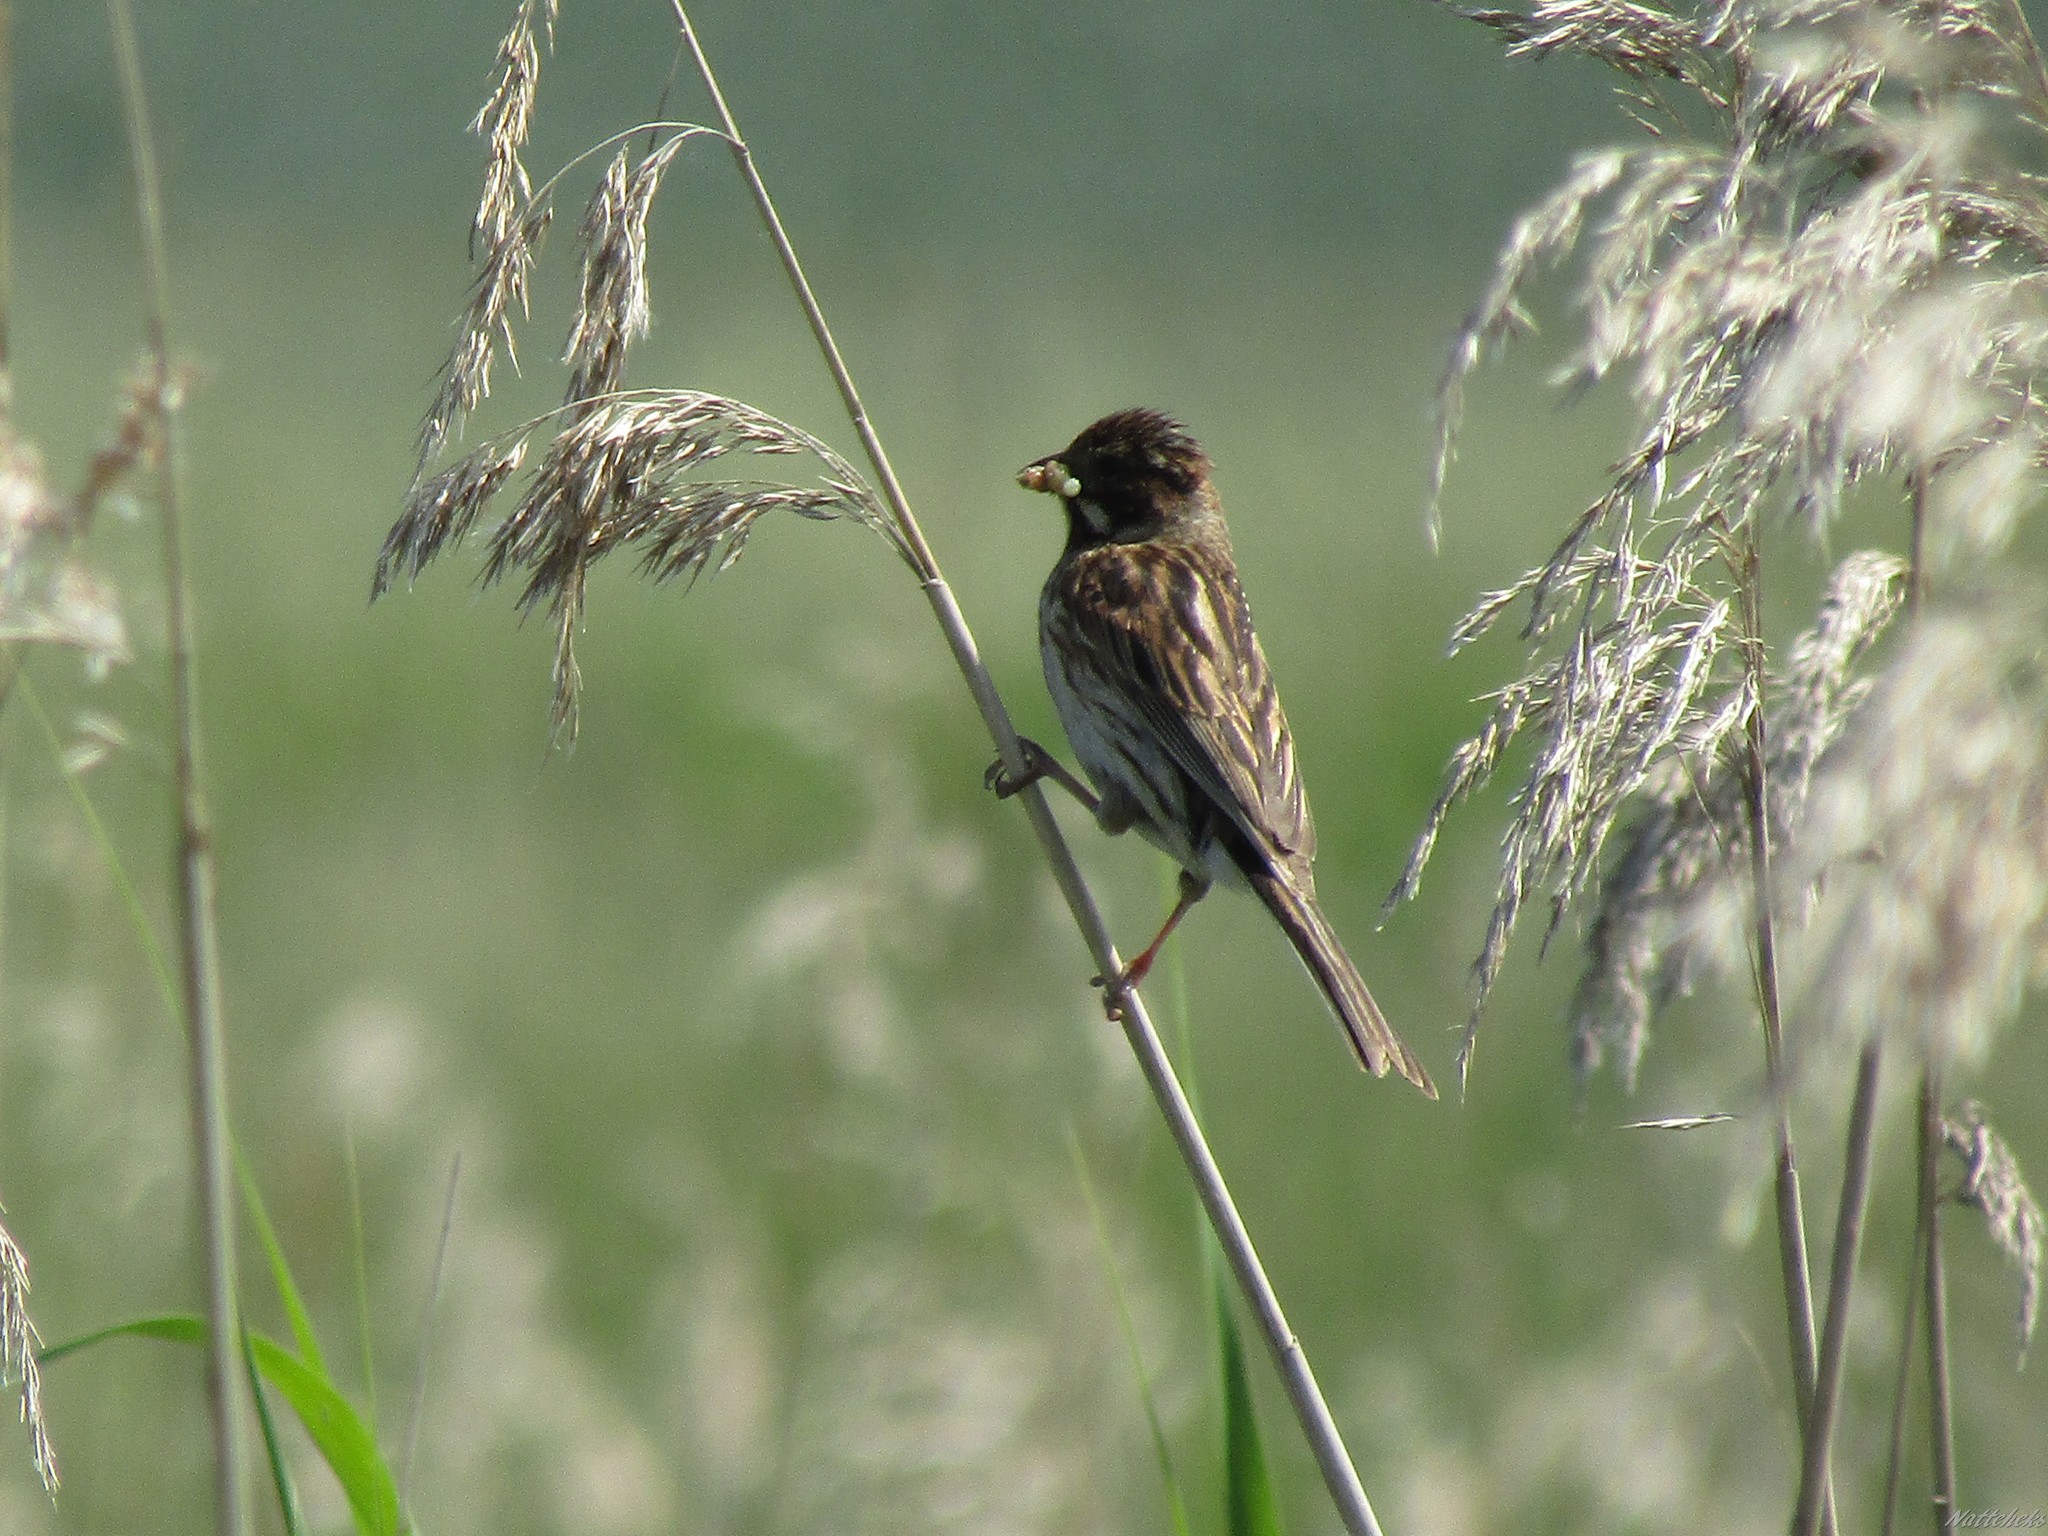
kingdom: Animalia
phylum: Chordata
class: Aves
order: Passeriformes
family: Emberizidae
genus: Emberiza
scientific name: Emberiza schoeniclus
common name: Reed bunting
